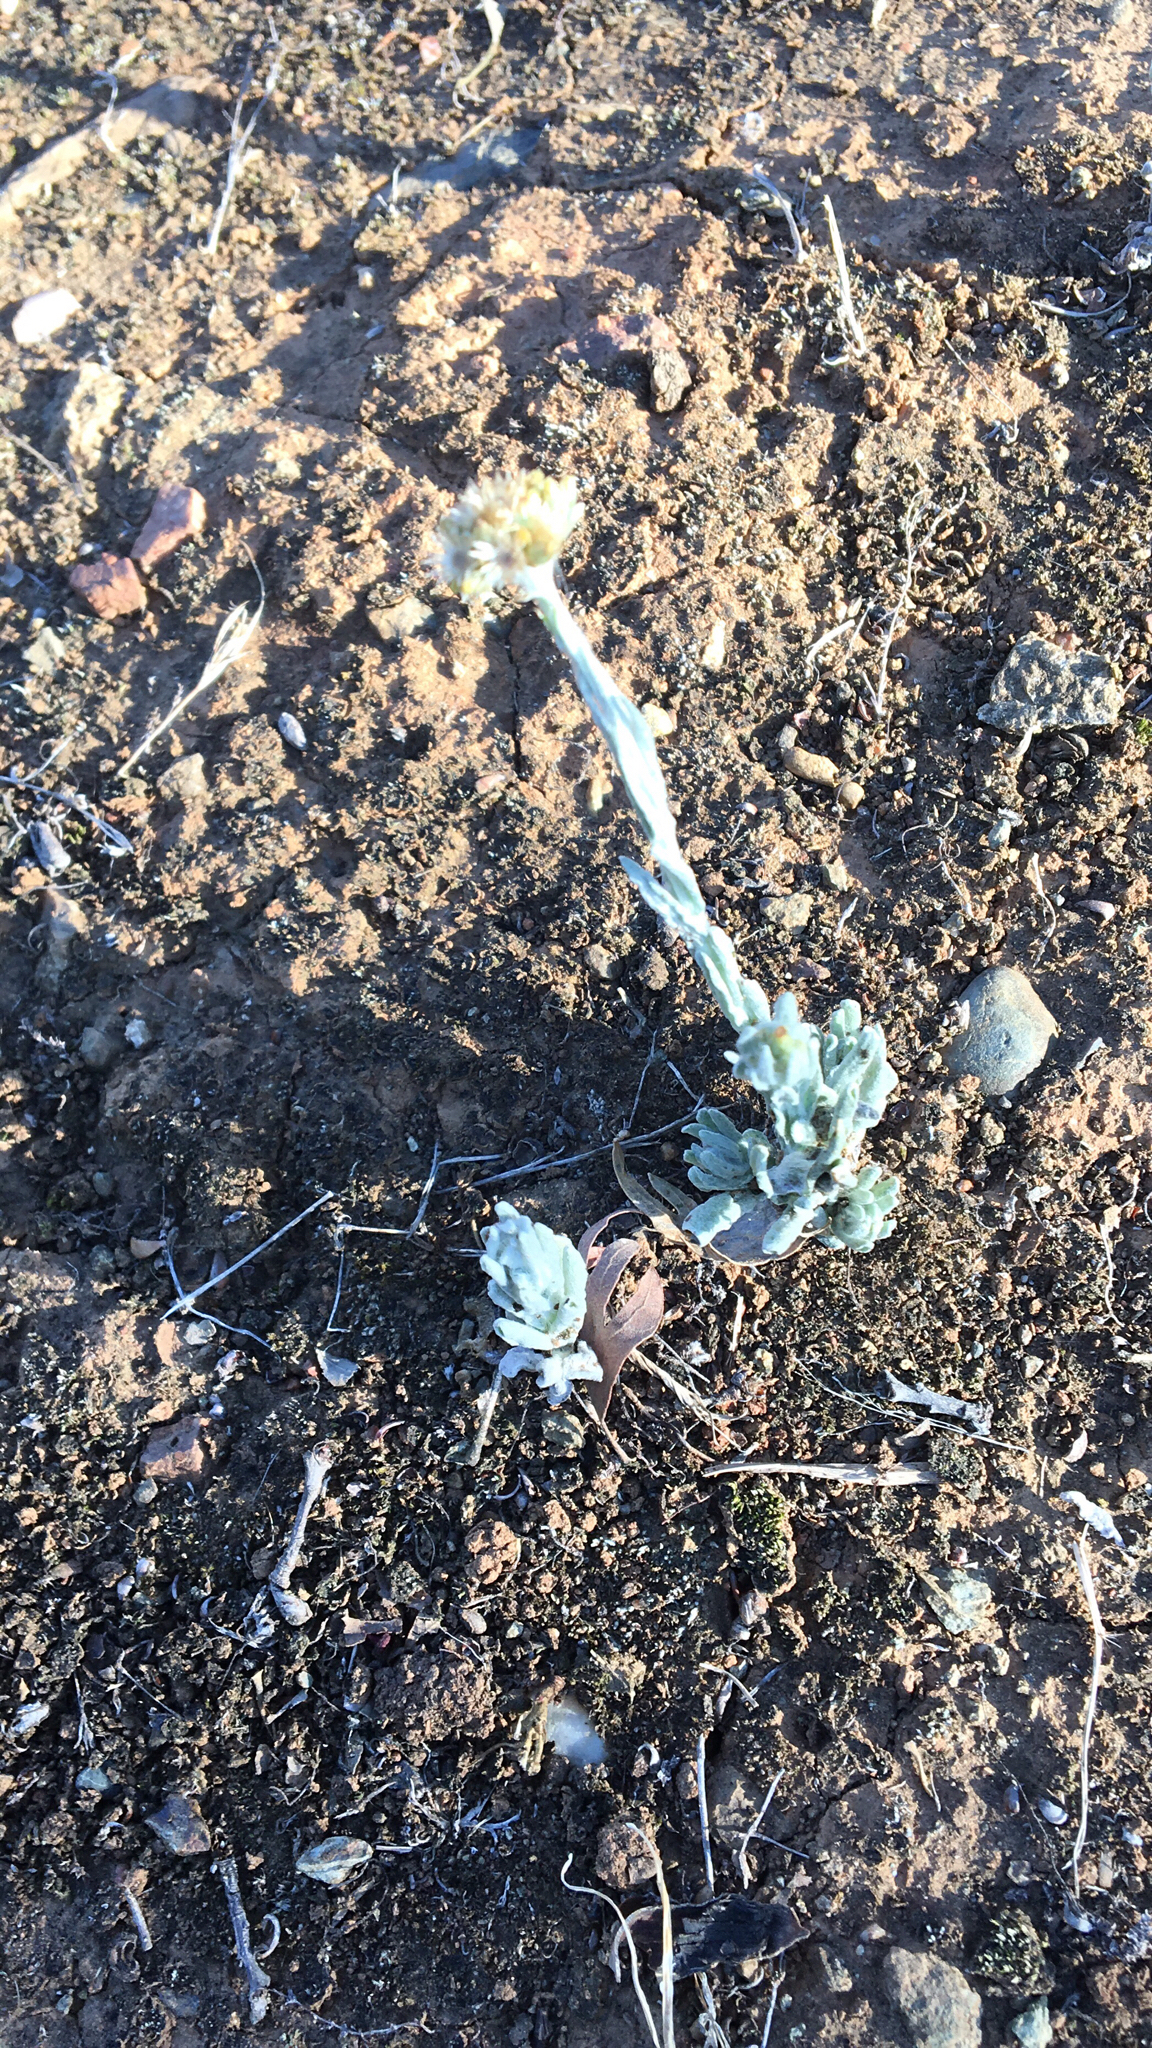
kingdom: Plantae
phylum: Tracheophyta
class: Magnoliopsida
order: Asterales
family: Asteraceae
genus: Helichrysum
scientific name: Helichrysum luteoalbum
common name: Daisy
